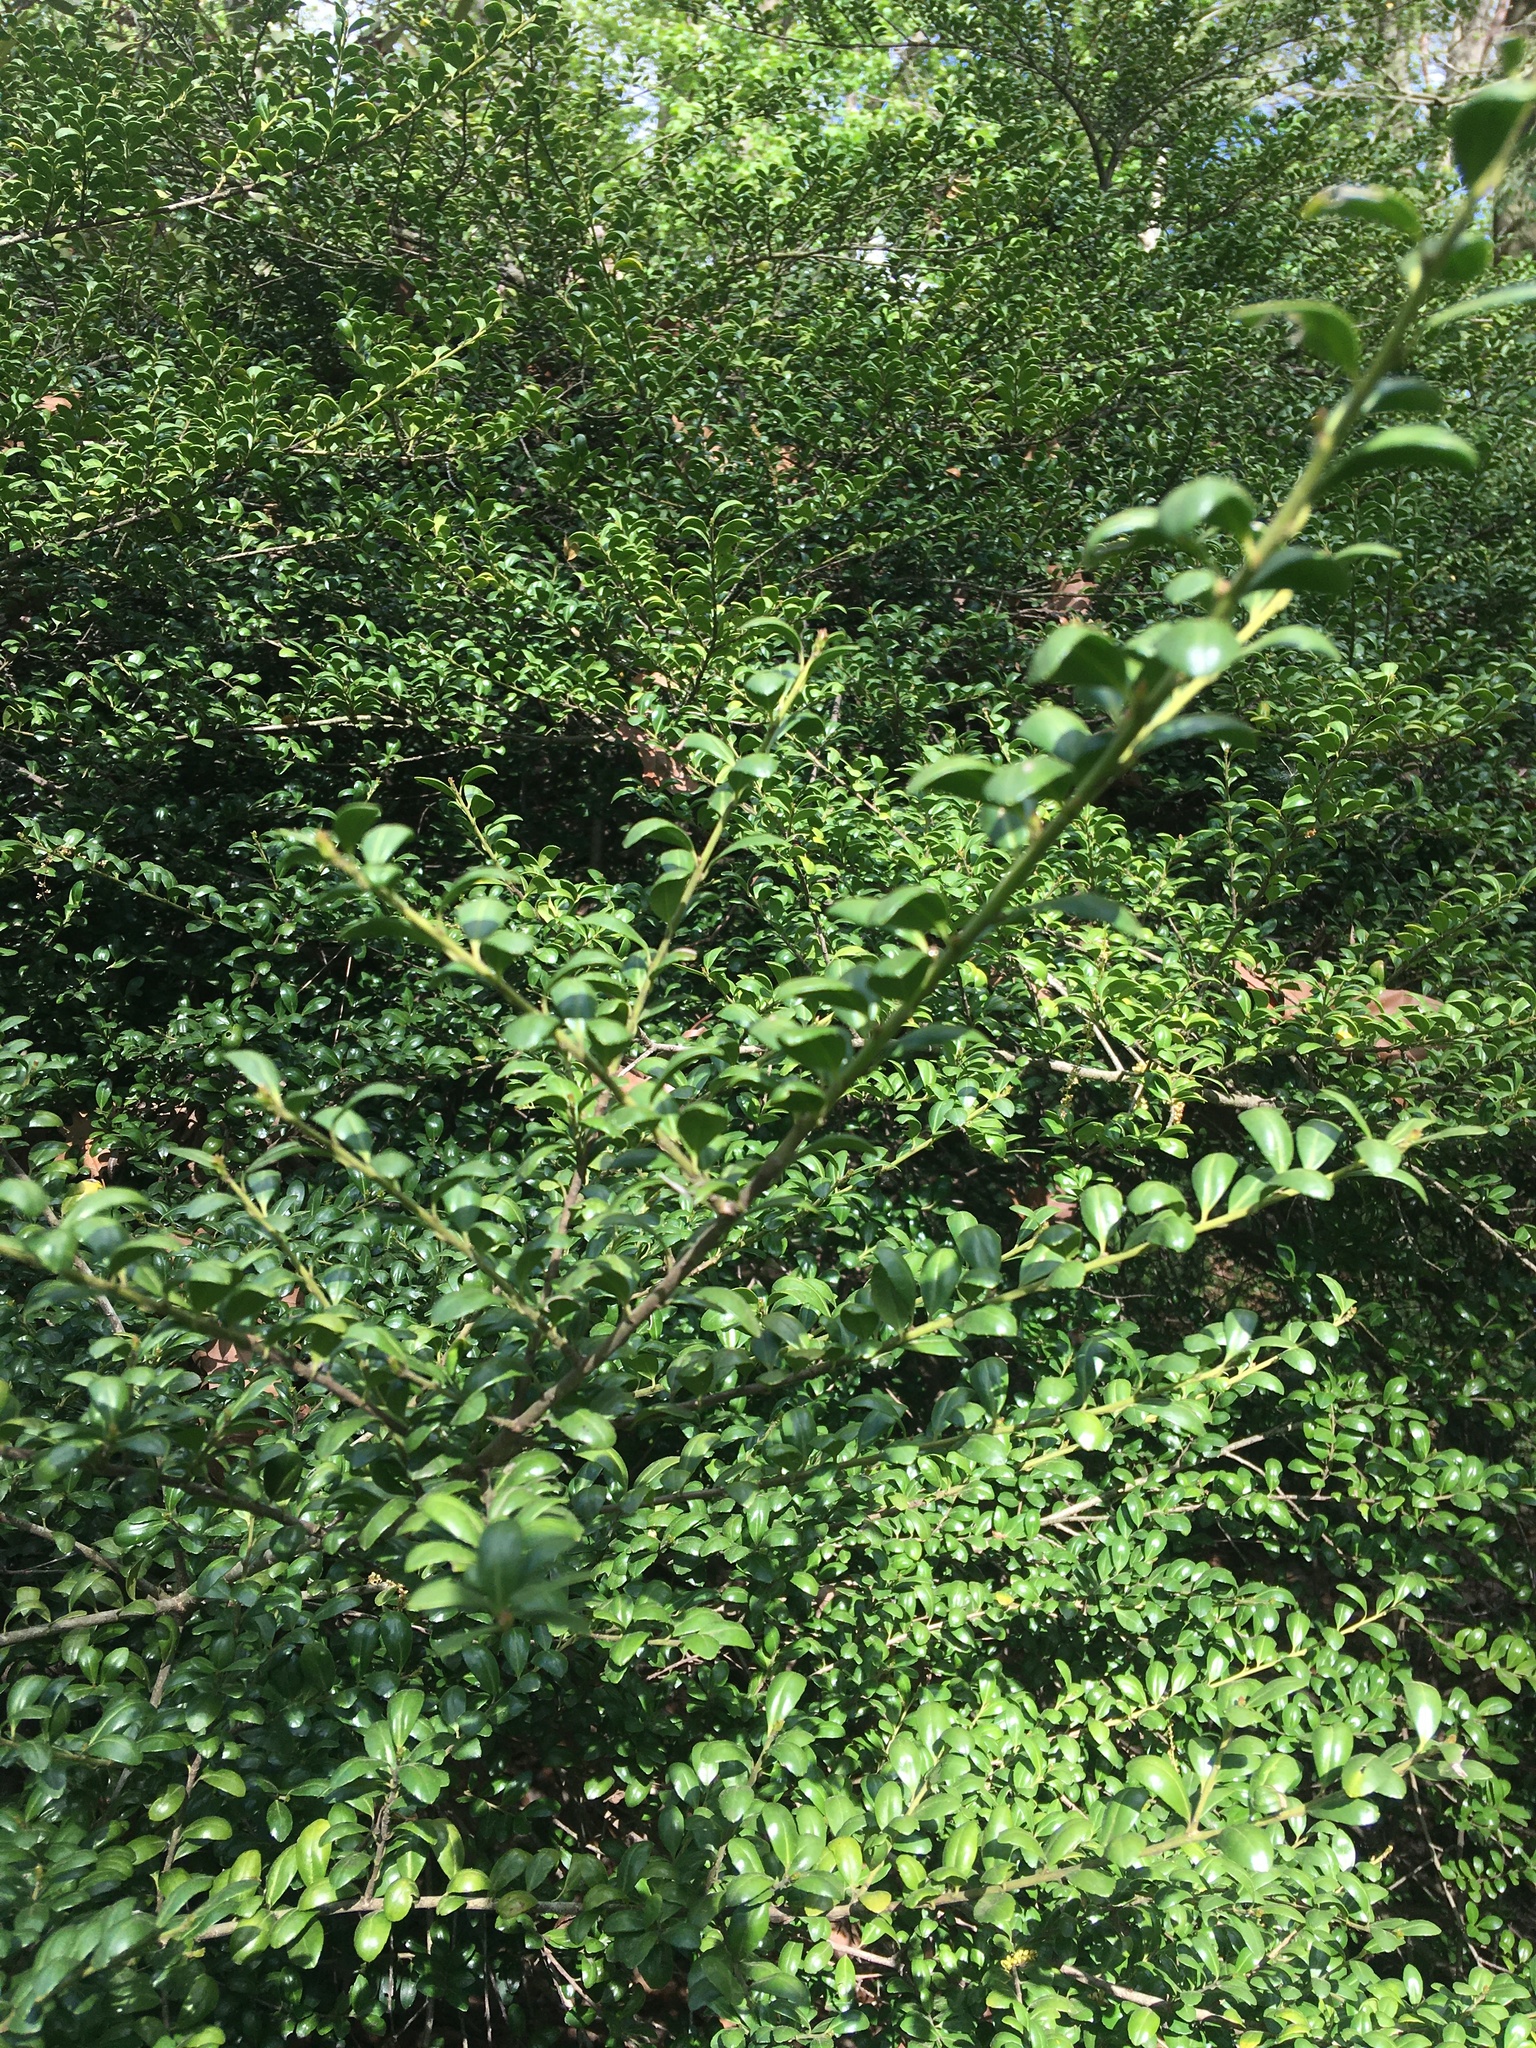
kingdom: Plantae
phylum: Tracheophyta
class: Magnoliopsida
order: Aquifoliales
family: Aquifoliaceae
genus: Ilex
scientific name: Ilex crenata
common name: Japanese holly
